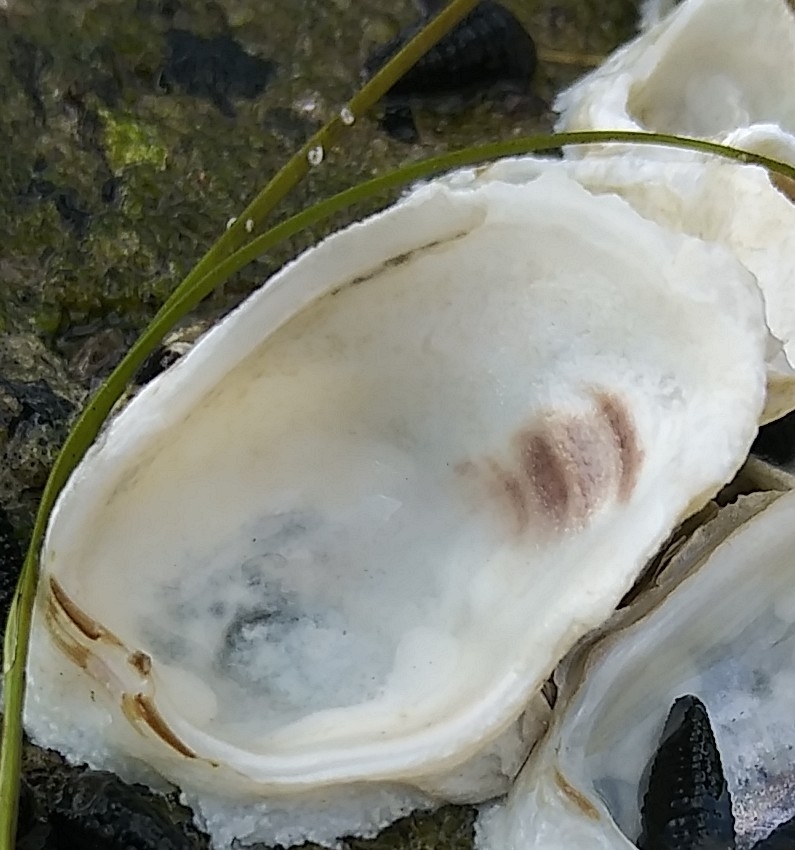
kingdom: Animalia
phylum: Mollusca
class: Bivalvia
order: Ostreida
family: Ostreidae
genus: Crassostrea
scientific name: Crassostrea virginica
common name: American oyster
